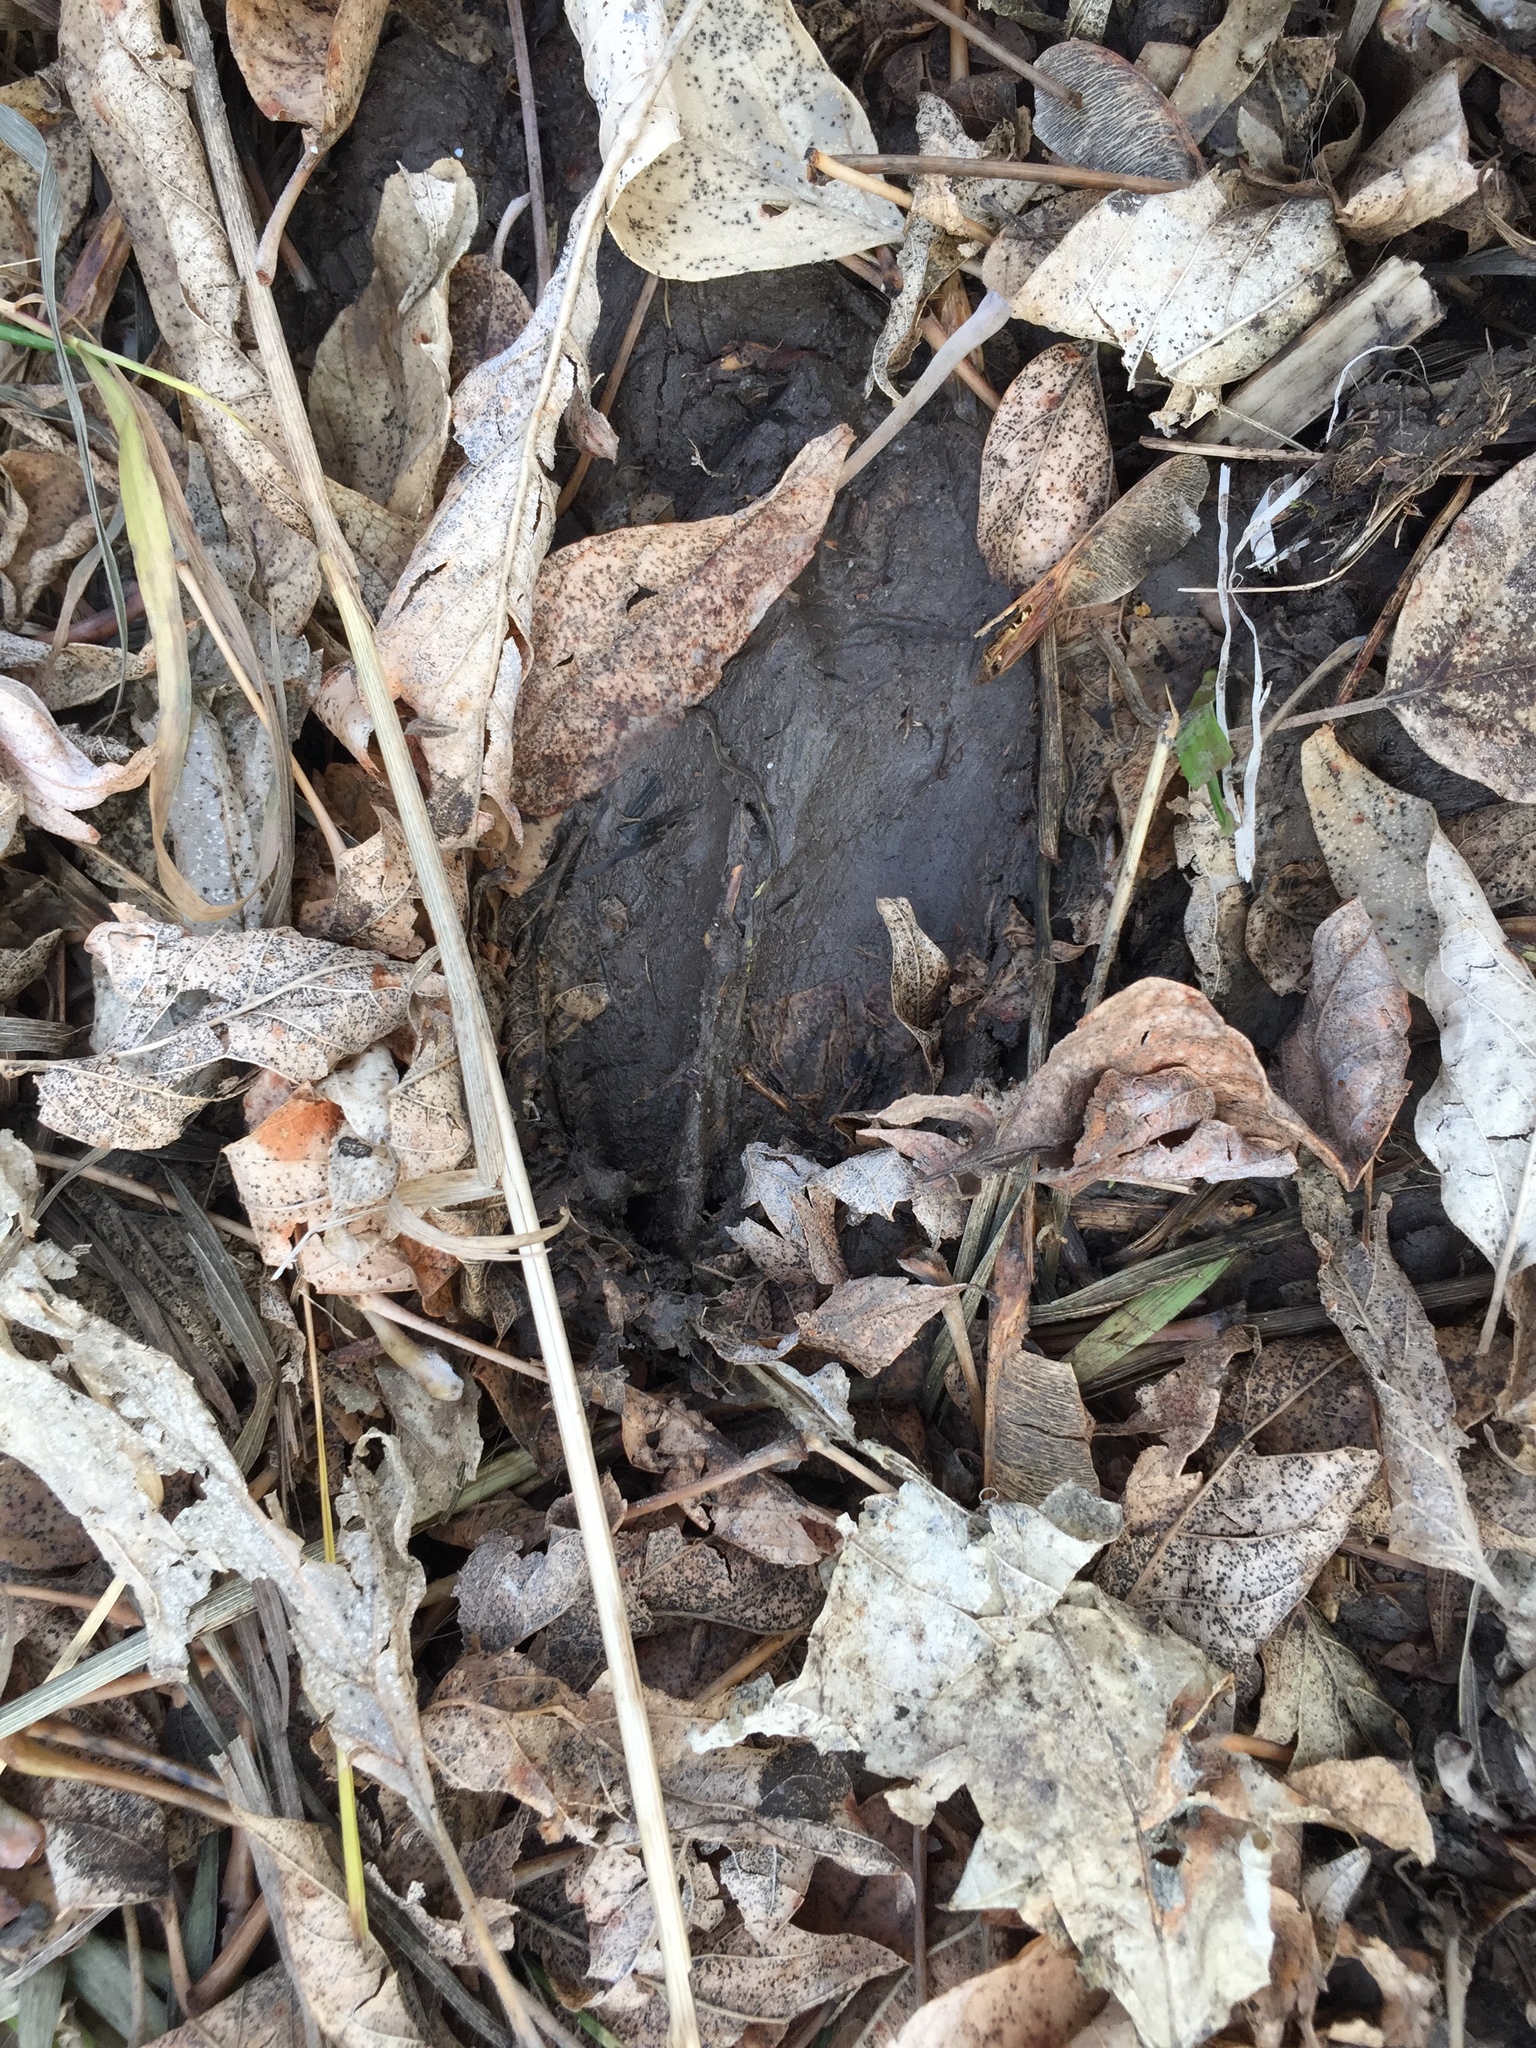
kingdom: Animalia
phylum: Chordata
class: Mammalia
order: Artiodactyla
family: Cervidae
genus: Odocoileus
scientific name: Odocoileus virginianus
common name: White-tailed deer
